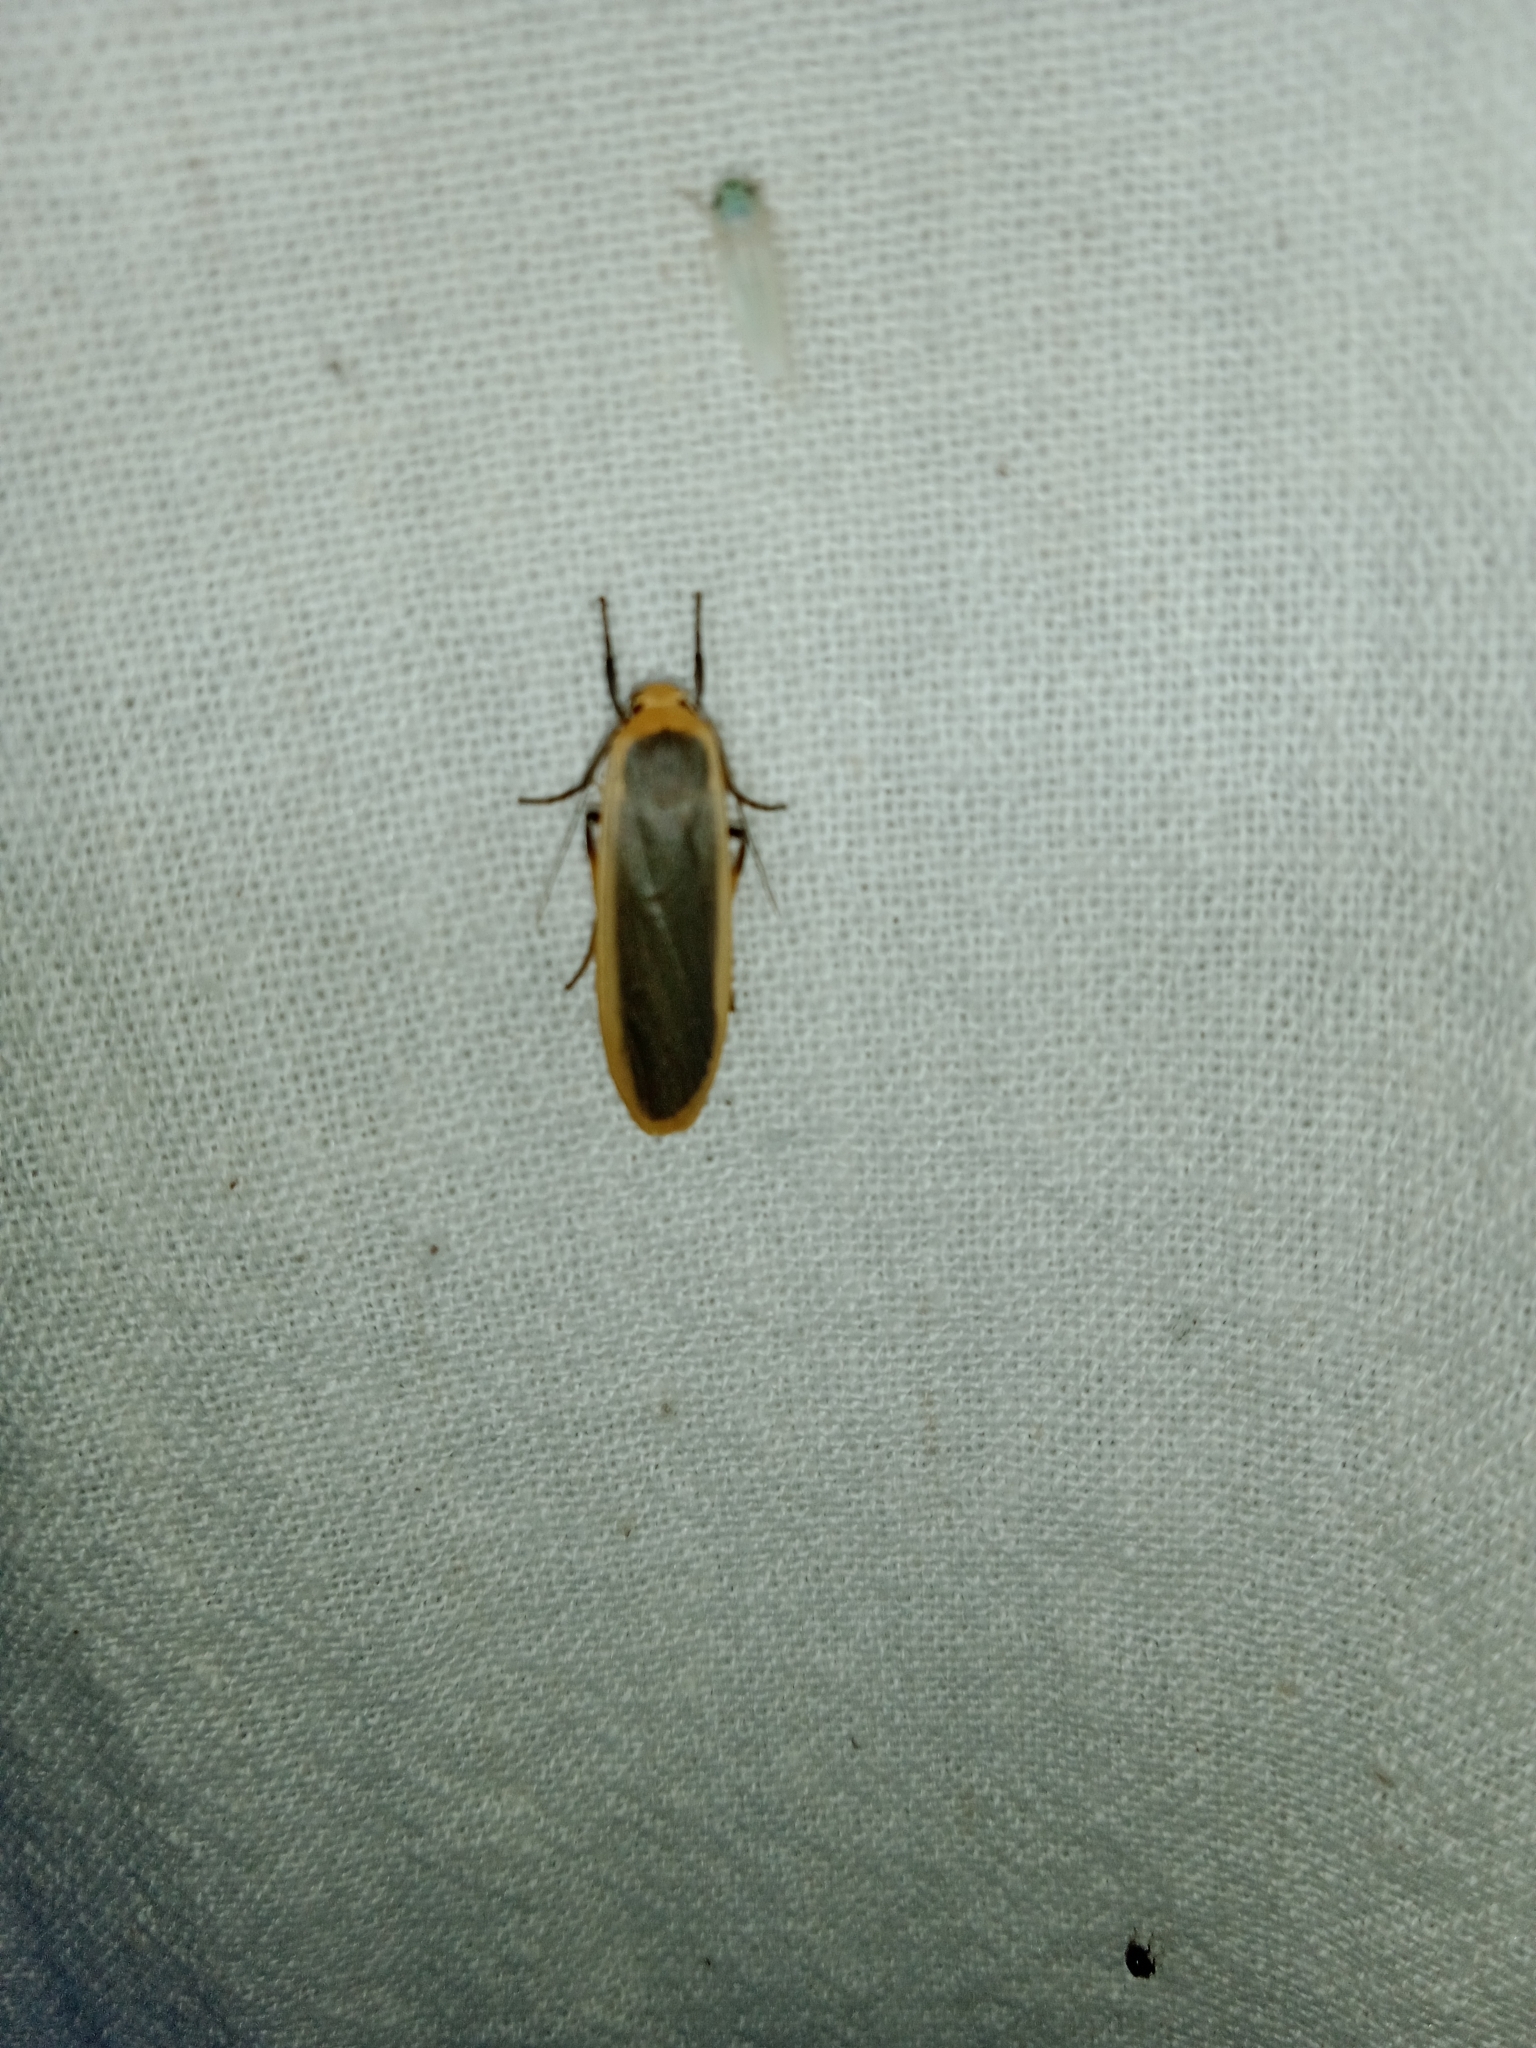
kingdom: Animalia
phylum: Arthropoda
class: Insecta
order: Lepidoptera
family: Erebidae
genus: Brunia
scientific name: Brunia antica
